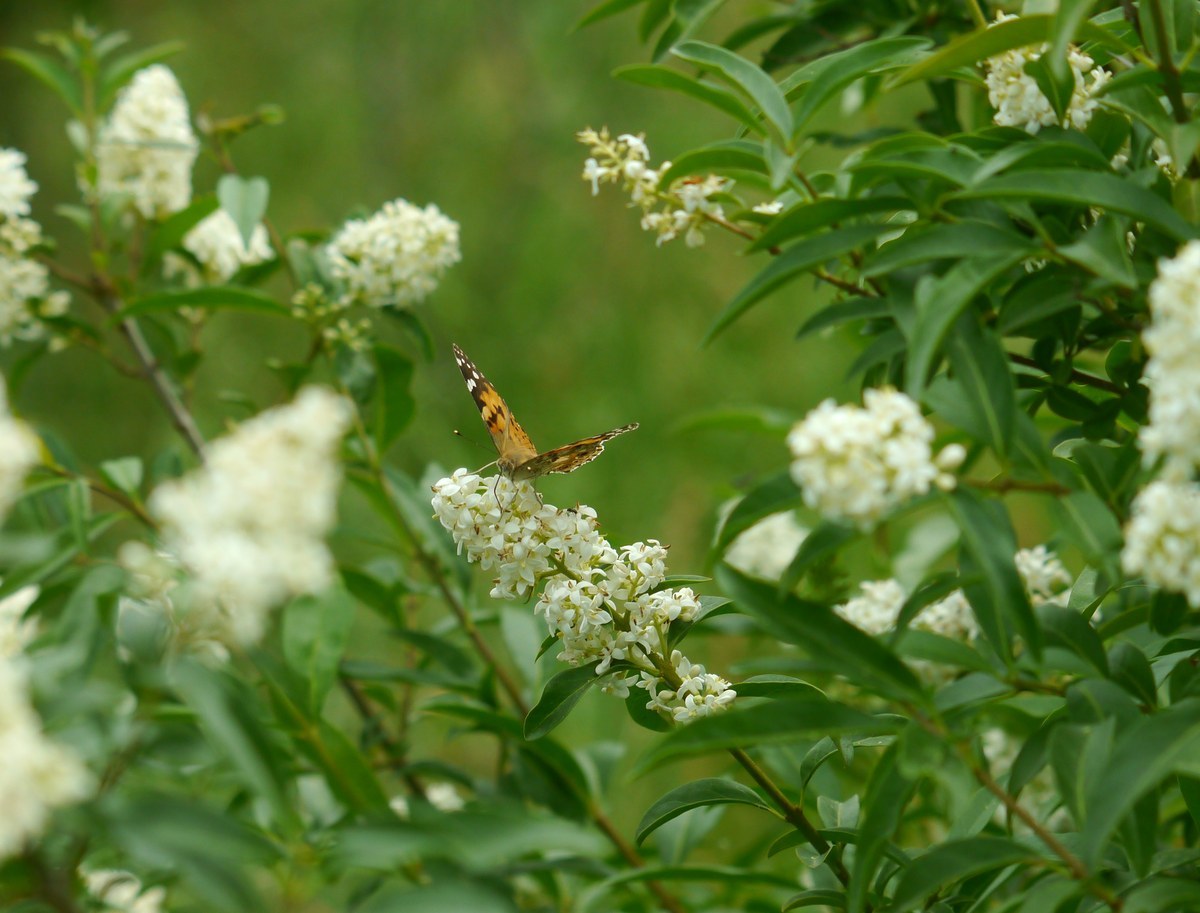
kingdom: Animalia
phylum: Arthropoda
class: Insecta
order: Lepidoptera
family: Nymphalidae
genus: Vanessa
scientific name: Vanessa cardui
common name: Painted lady
